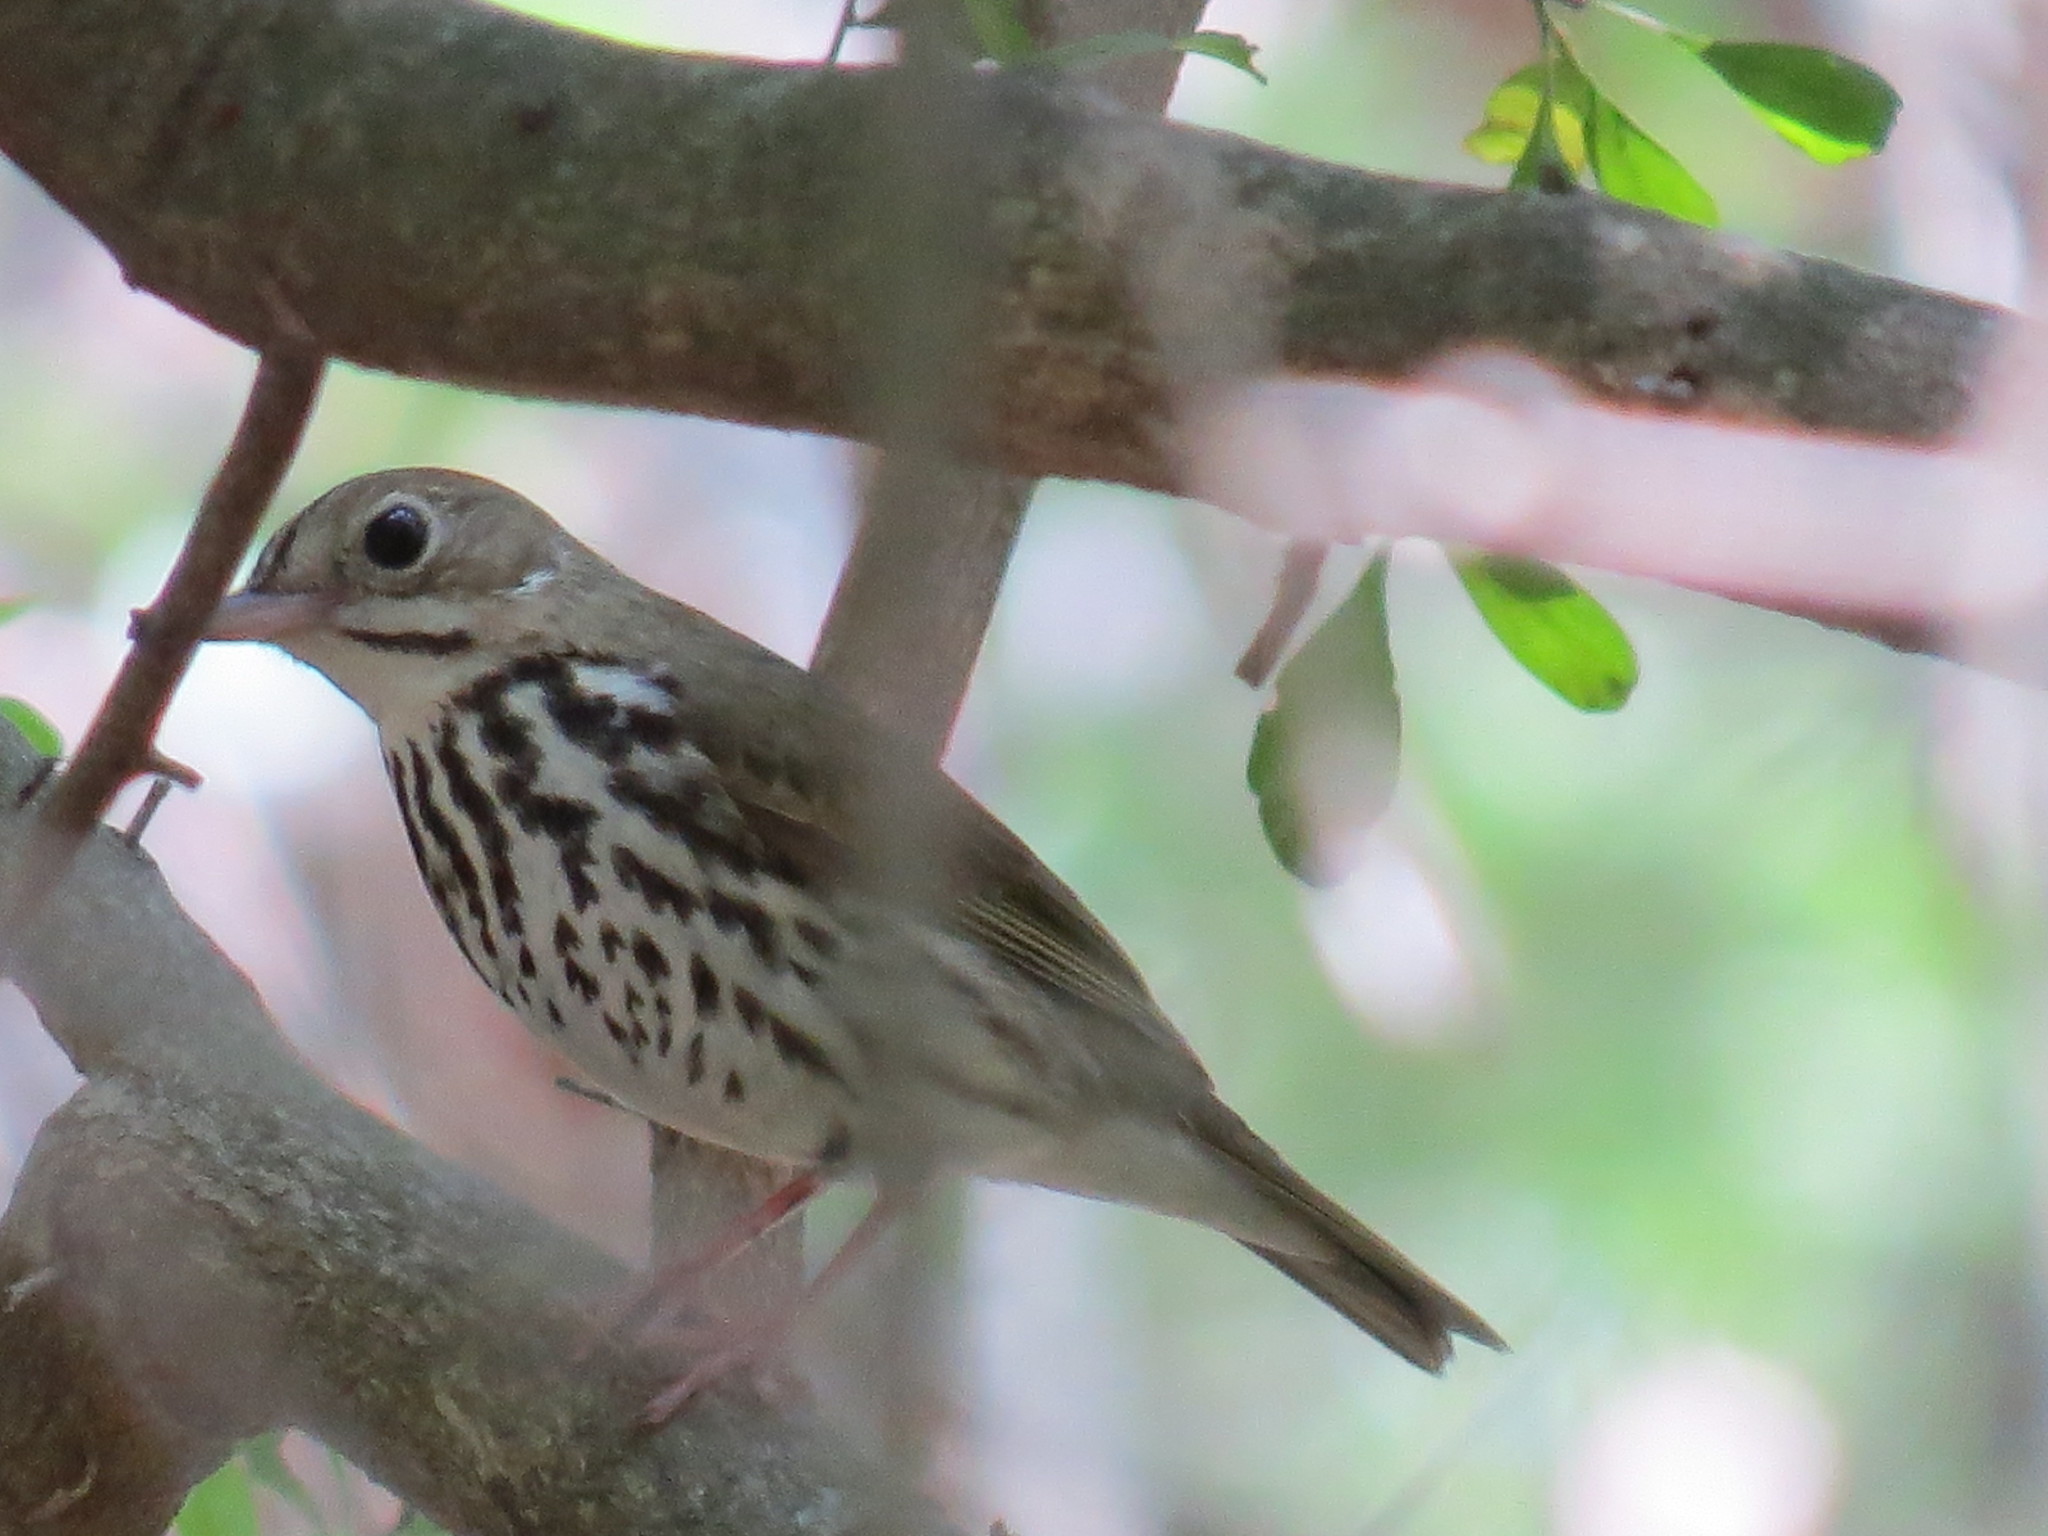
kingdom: Animalia
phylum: Chordata
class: Aves
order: Passeriformes
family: Parulidae
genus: Seiurus
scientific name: Seiurus aurocapilla
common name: Ovenbird
